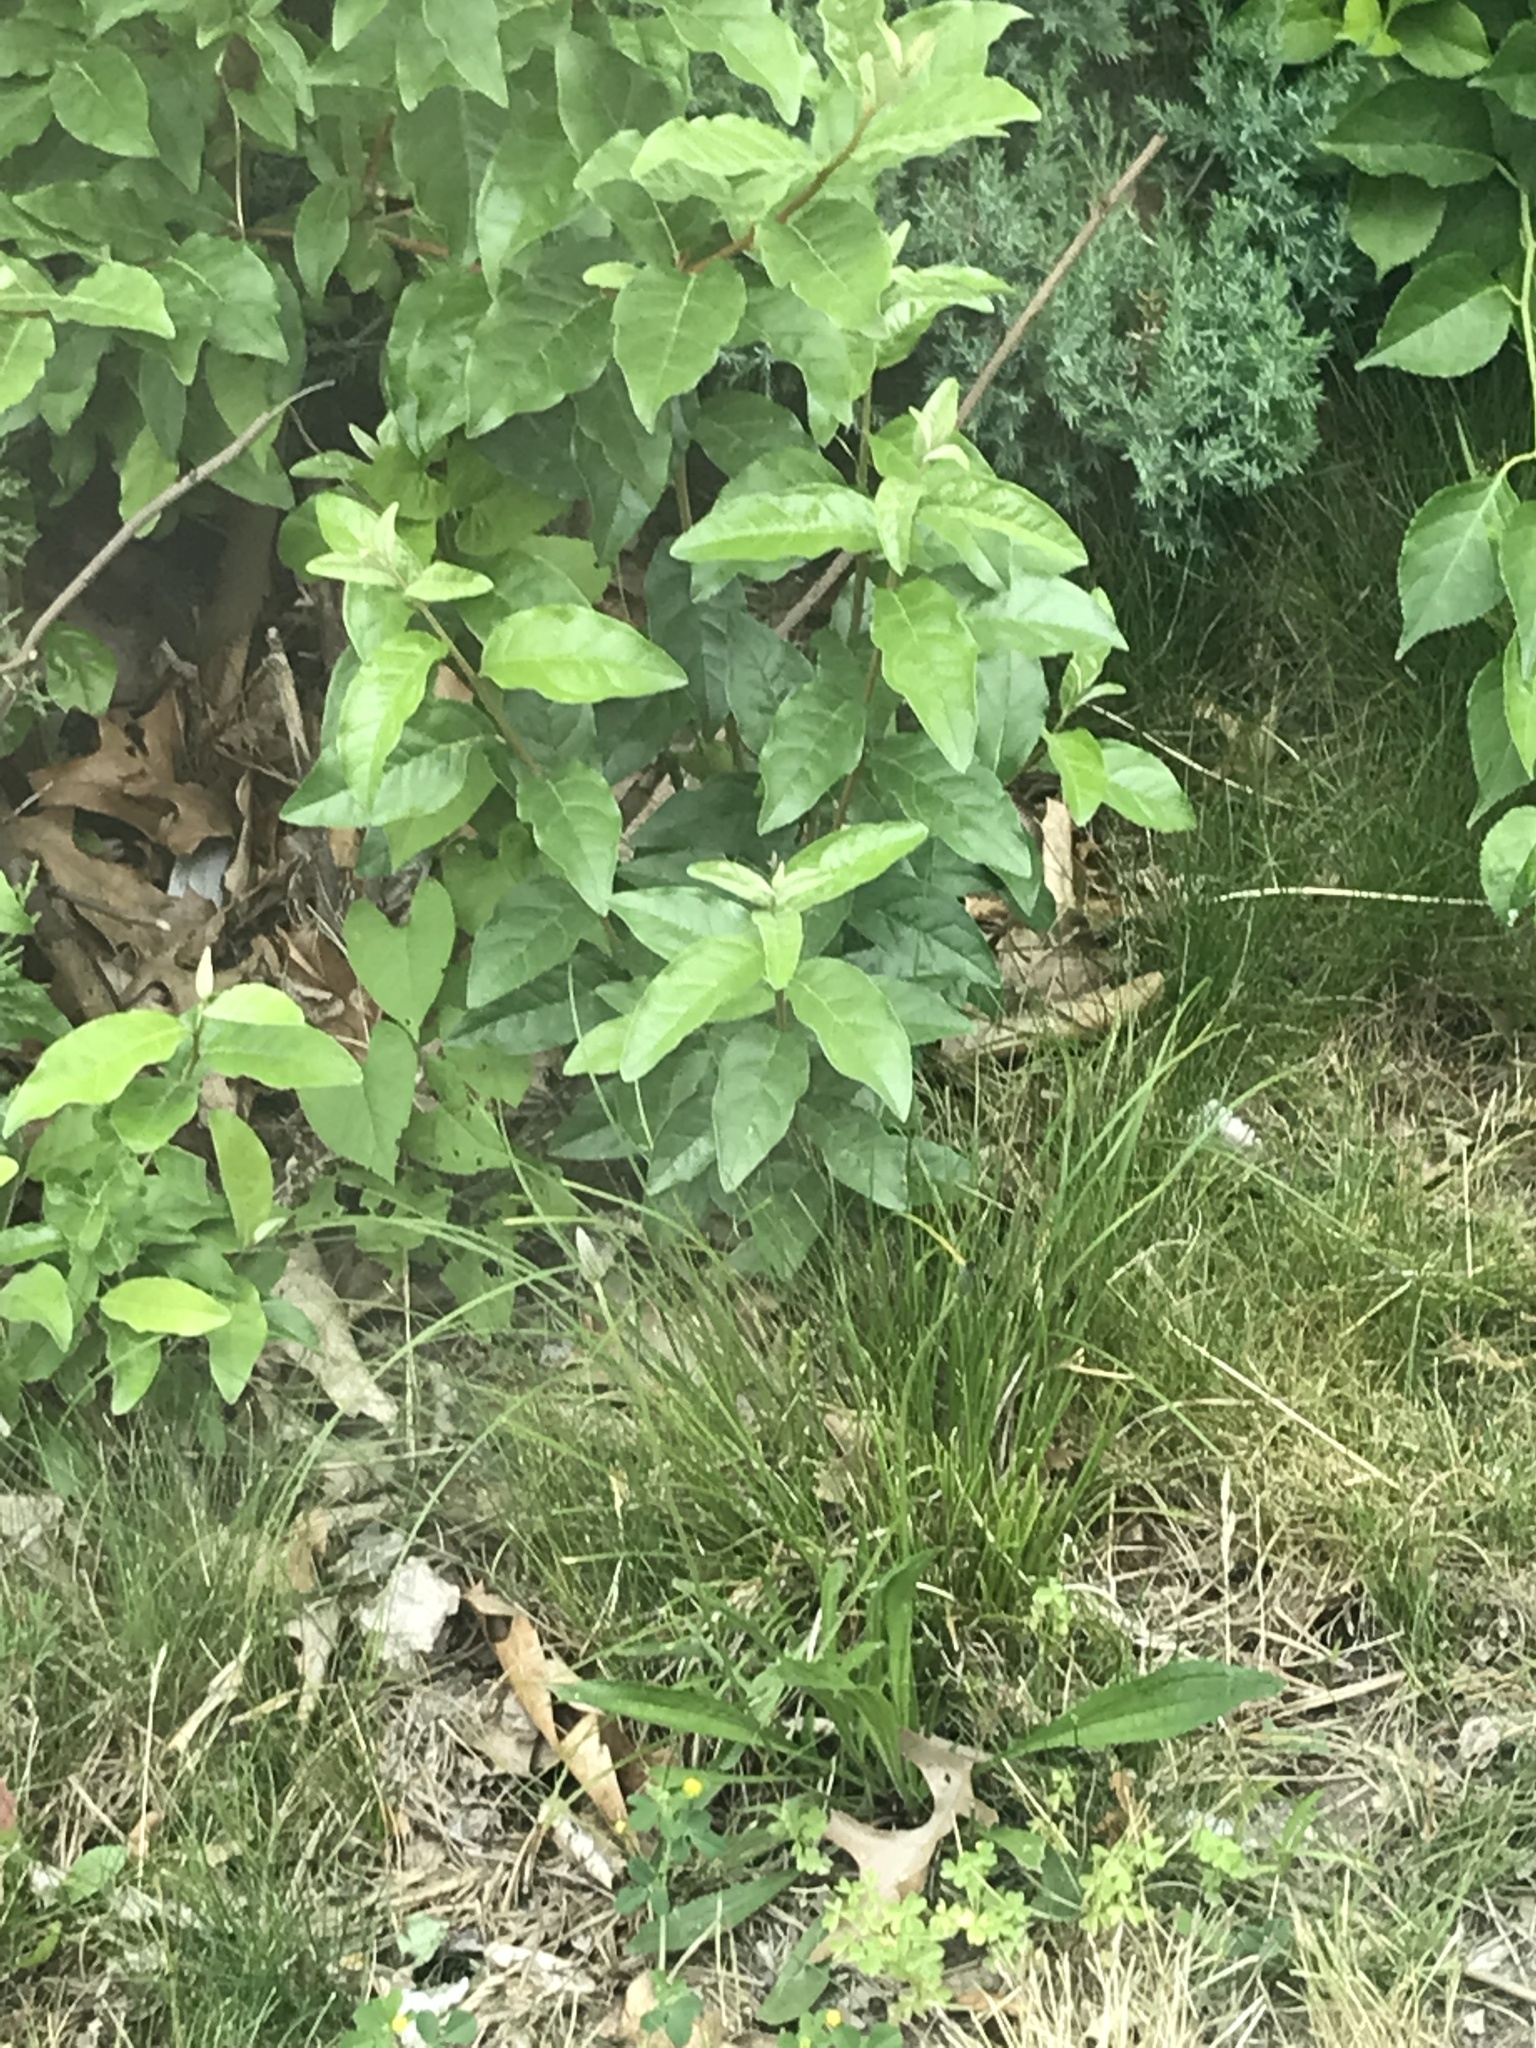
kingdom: Plantae
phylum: Tracheophyta
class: Magnoliopsida
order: Lamiales
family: Plantaginaceae
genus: Plantago
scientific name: Plantago lanceolata
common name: Ribwort plantain
